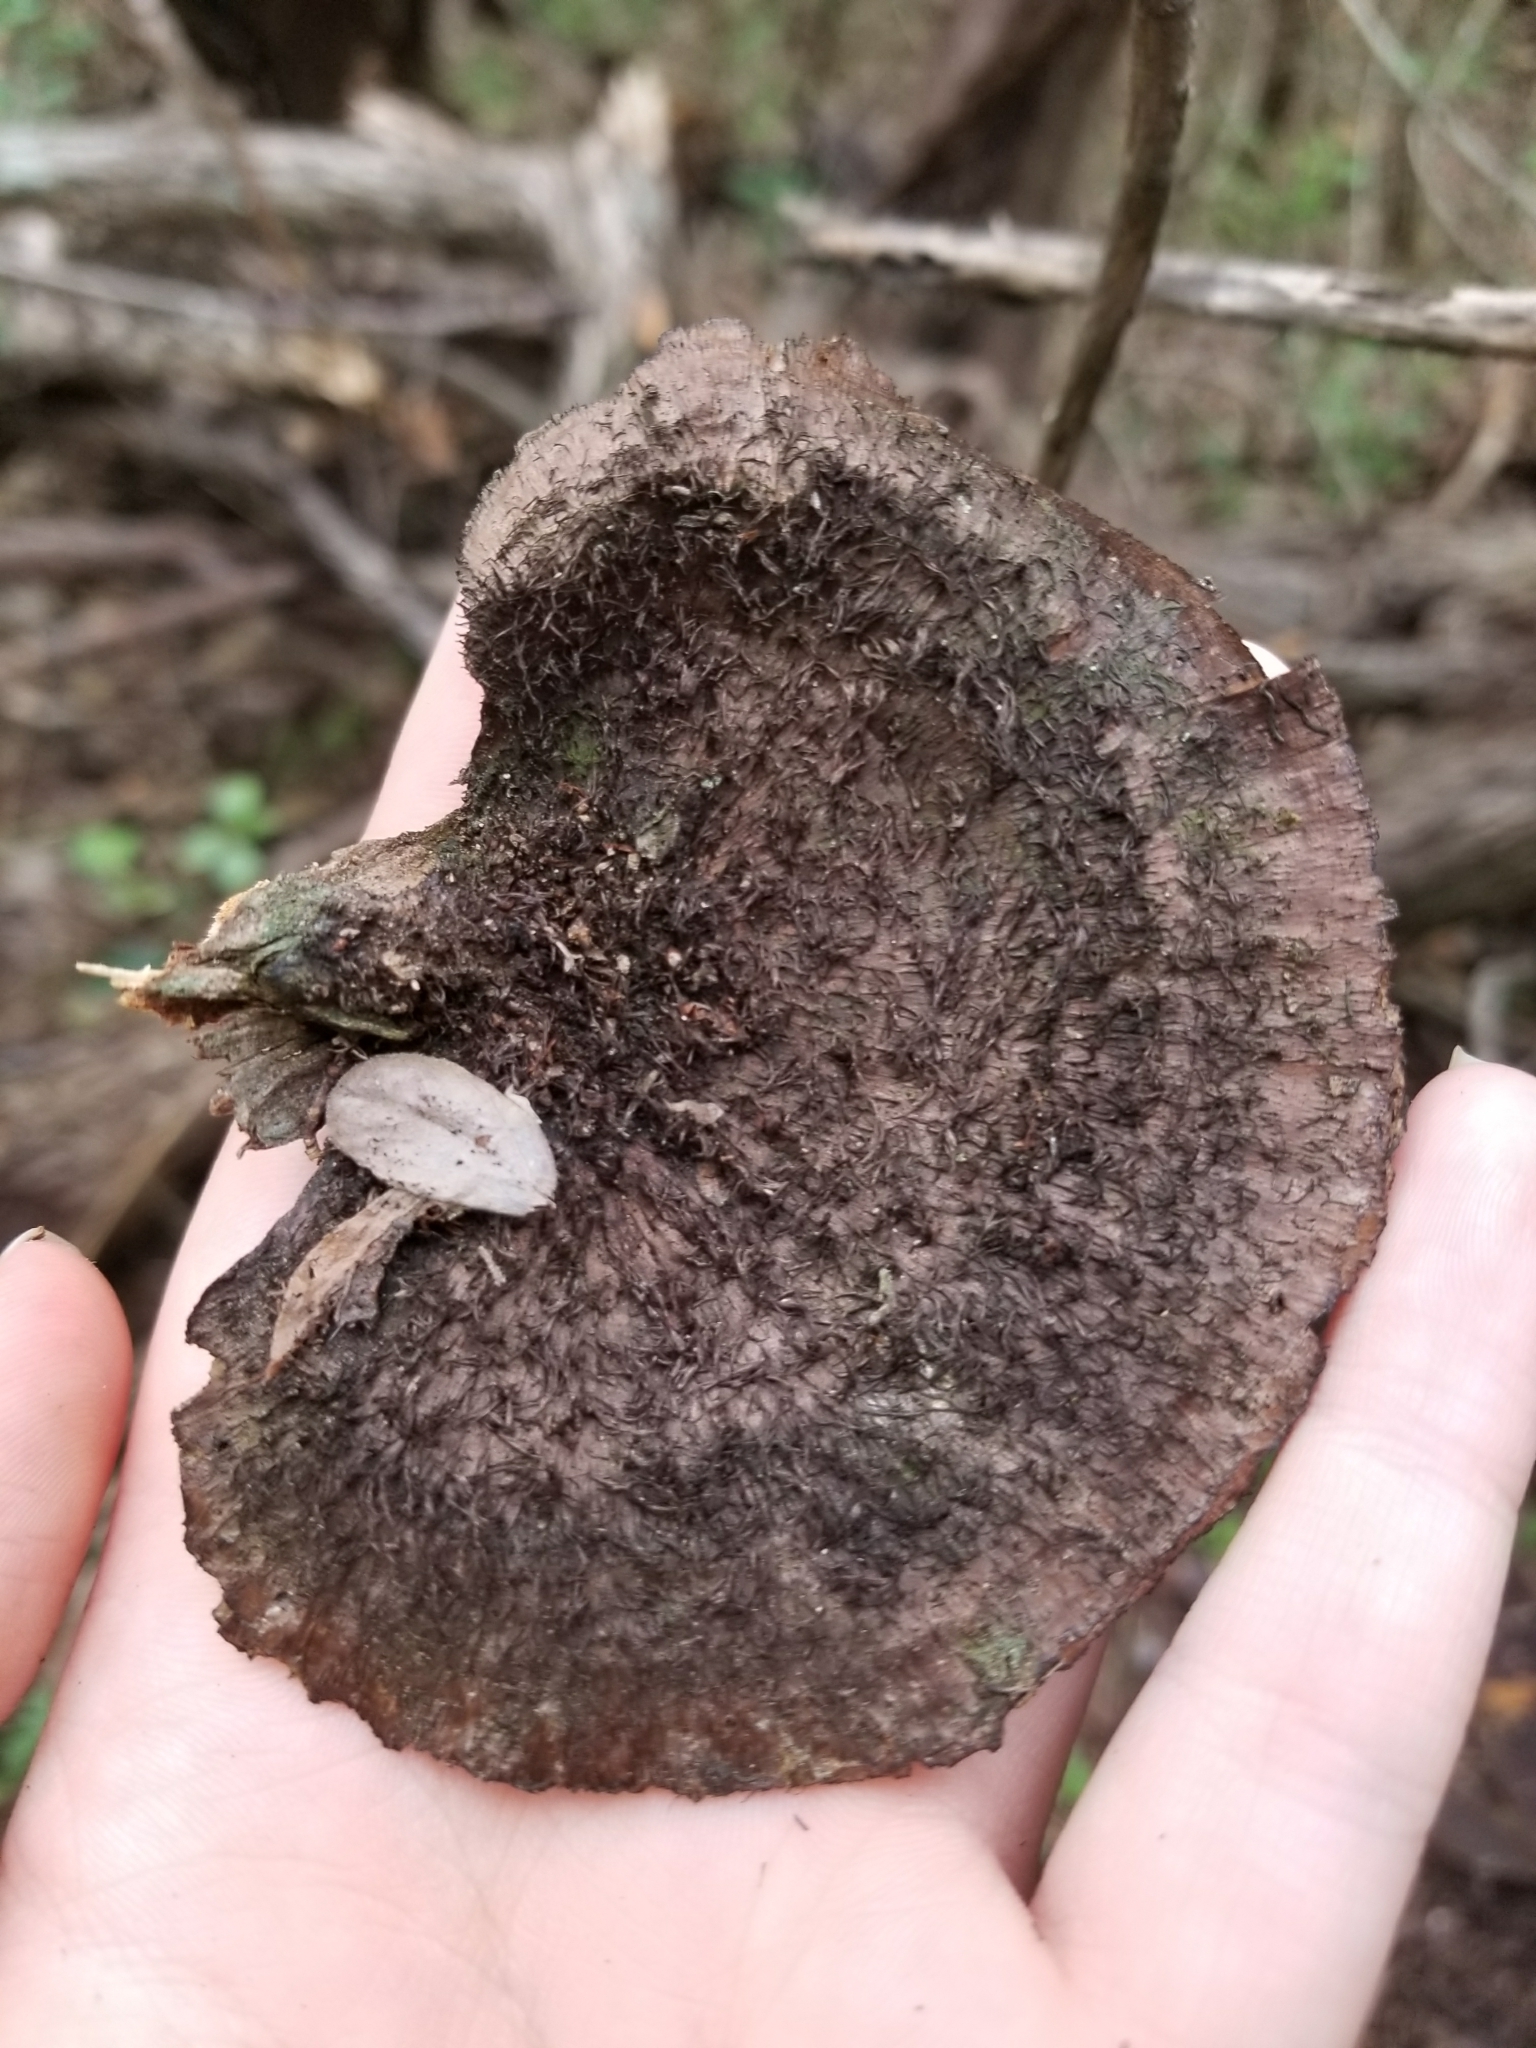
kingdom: Fungi
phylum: Basidiomycota
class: Agaricomycetes
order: Polyporales
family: Cerrenaceae
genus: Cerrena
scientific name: Cerrena hydnoides
